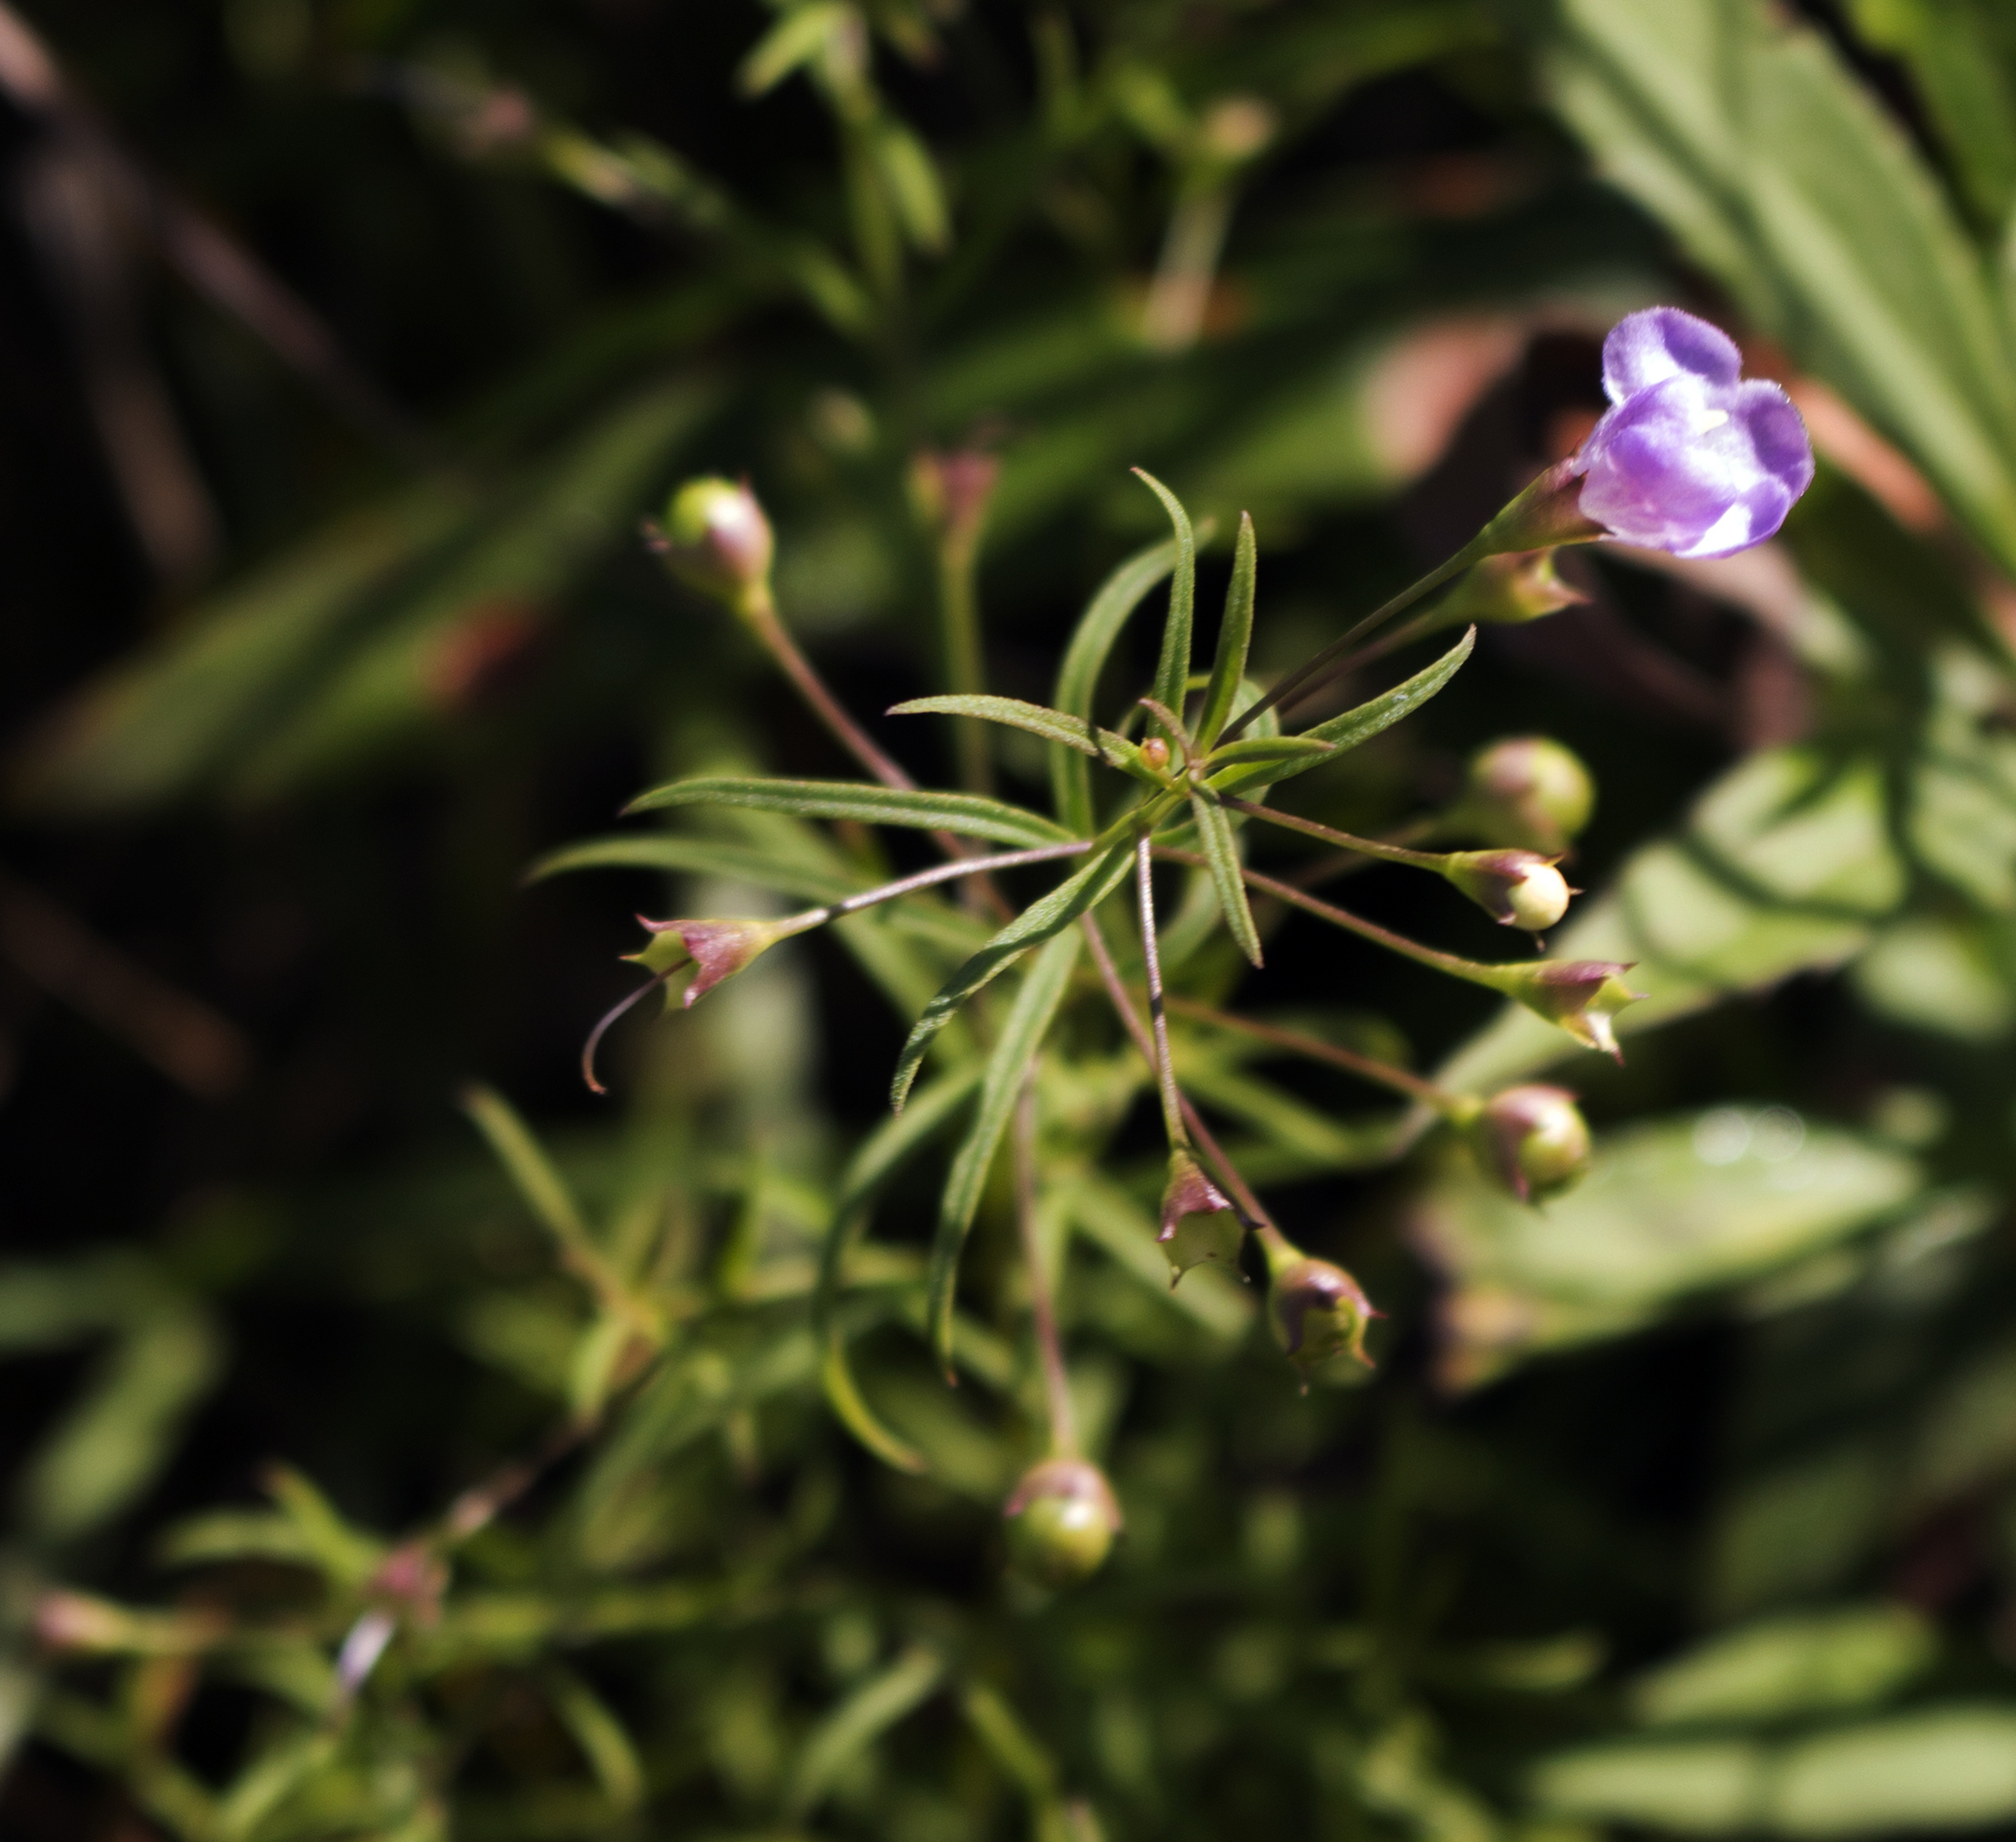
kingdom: Plantae
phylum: Tracheophyta
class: Magnoliopsida
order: Lamiales
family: Orobanchaceae
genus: Agalinis
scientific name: Agalinis tenuifolia
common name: Slender agalinis
